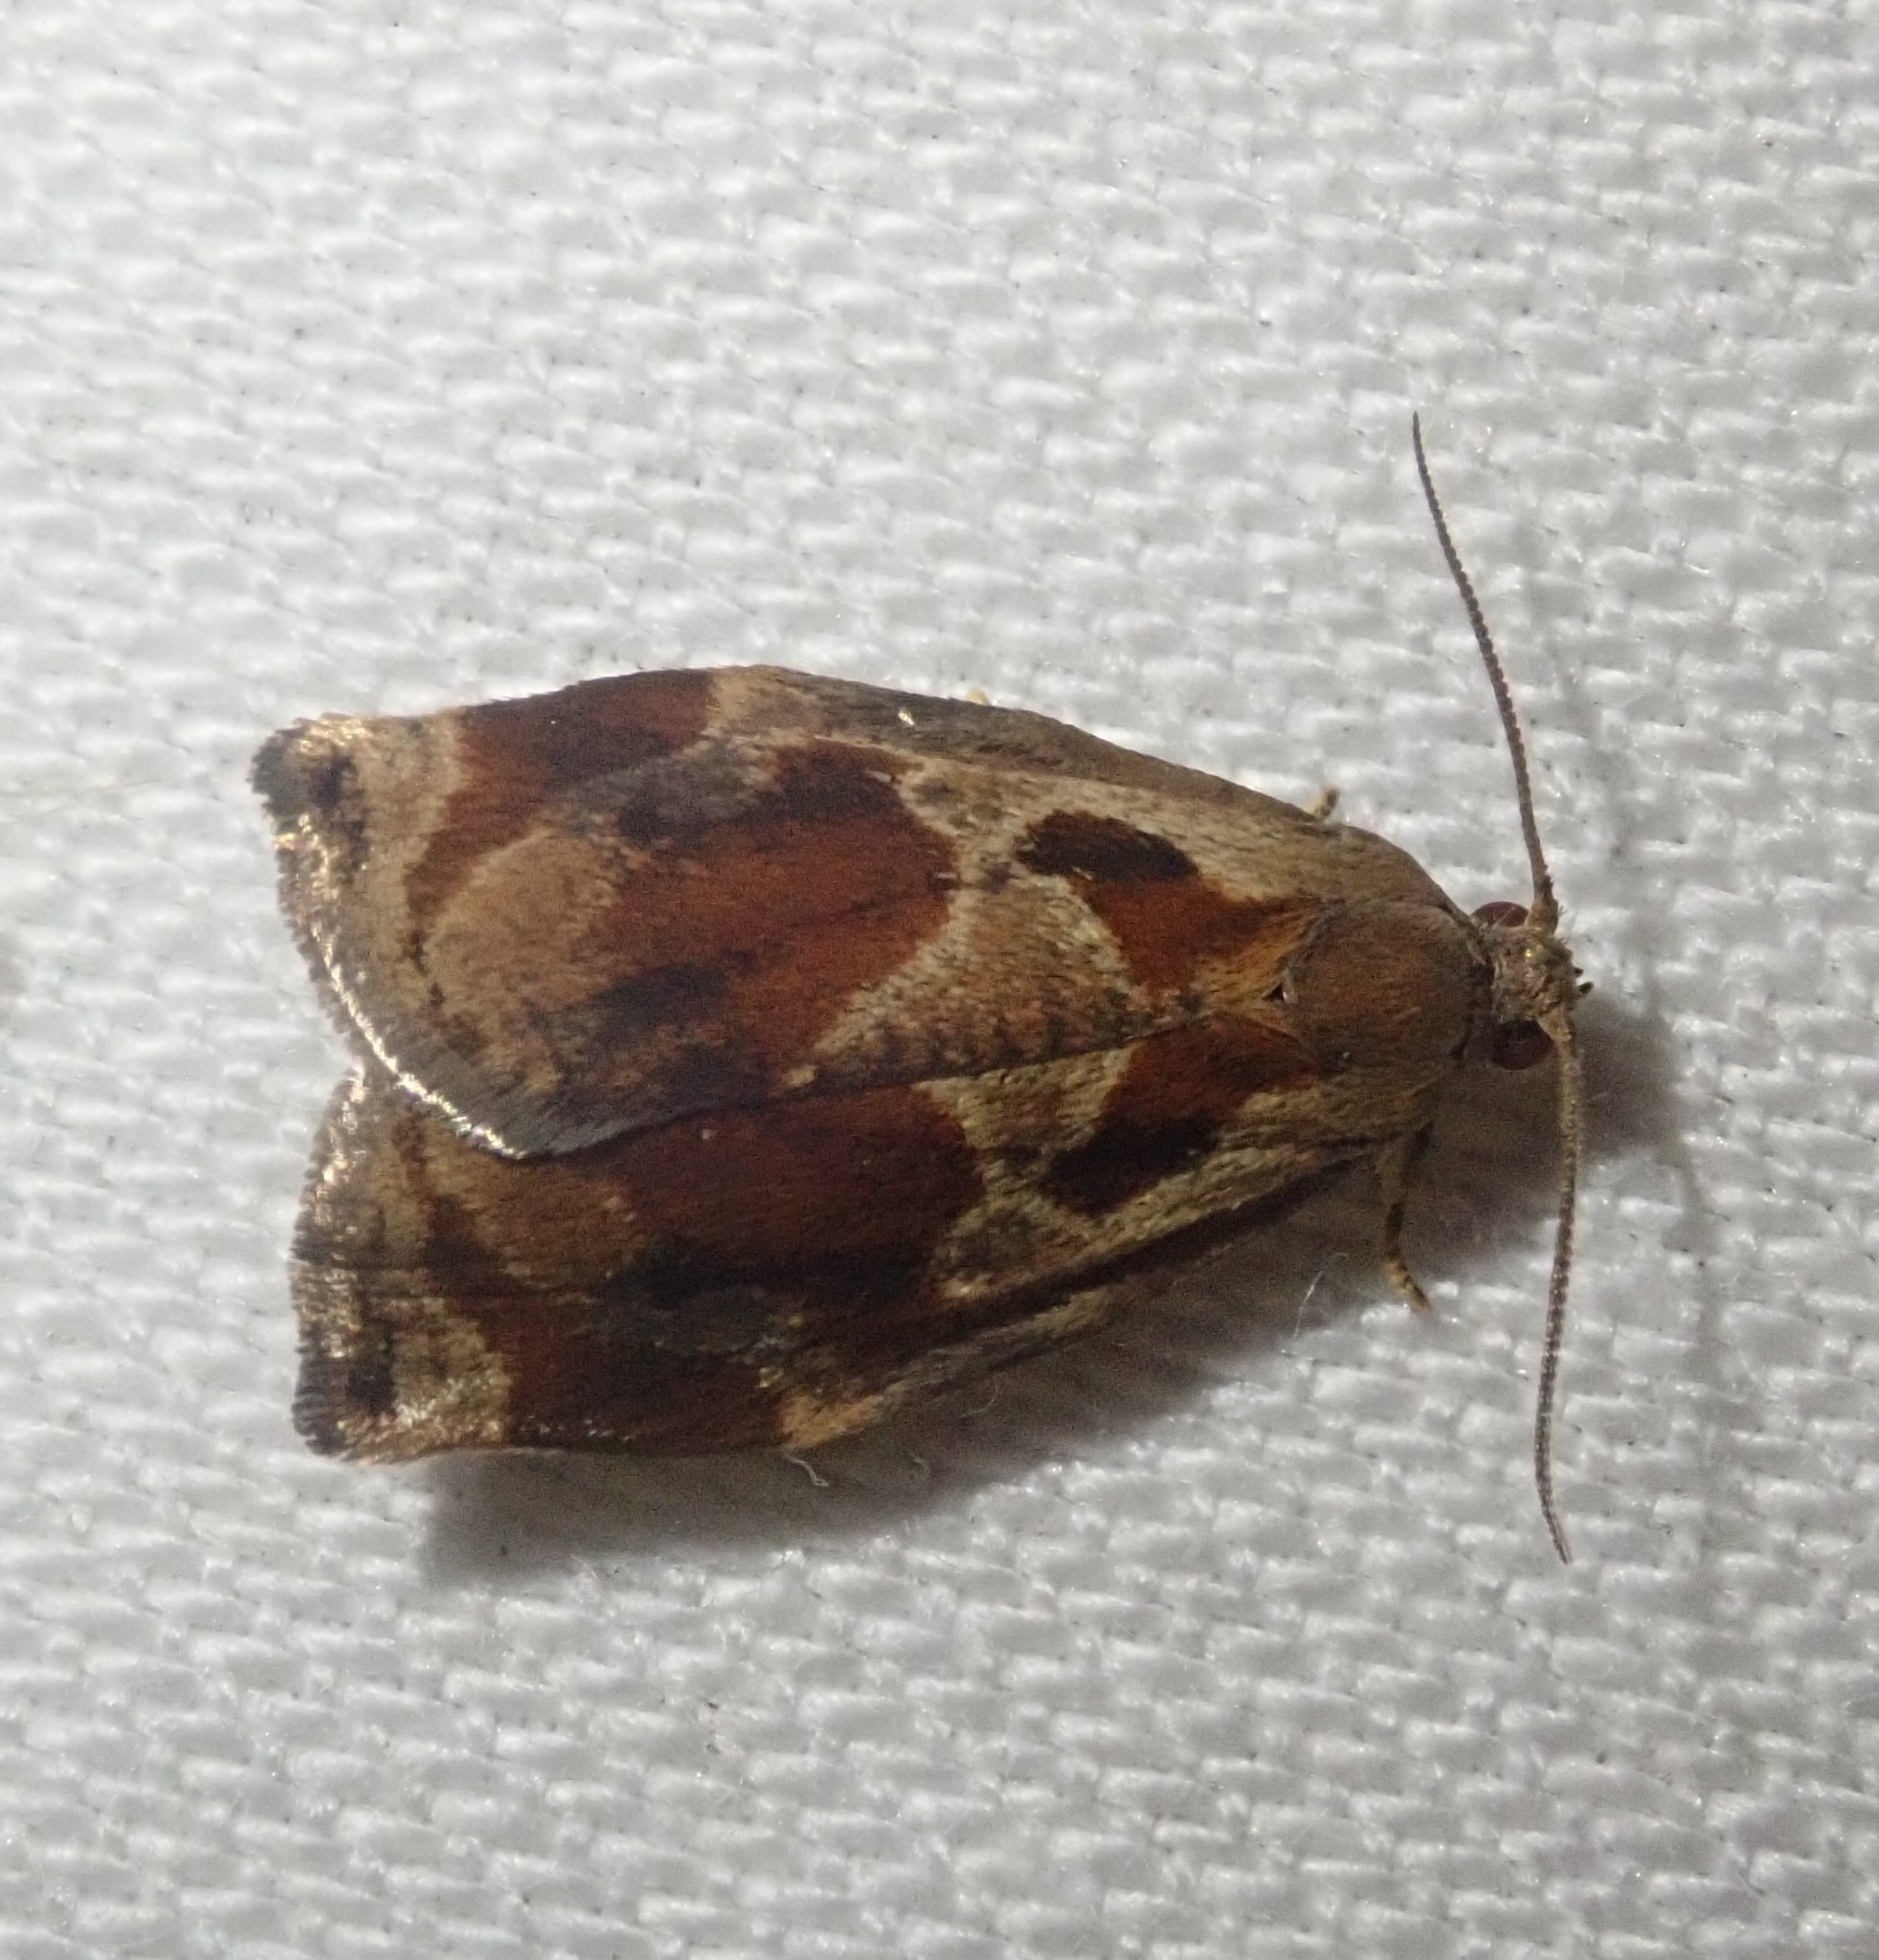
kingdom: Animalia
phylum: Arthropoda
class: Insecta
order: Lepidoptera
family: Tortricidae
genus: Archips
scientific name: Archips podana
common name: Large fruit-tree tortrix
